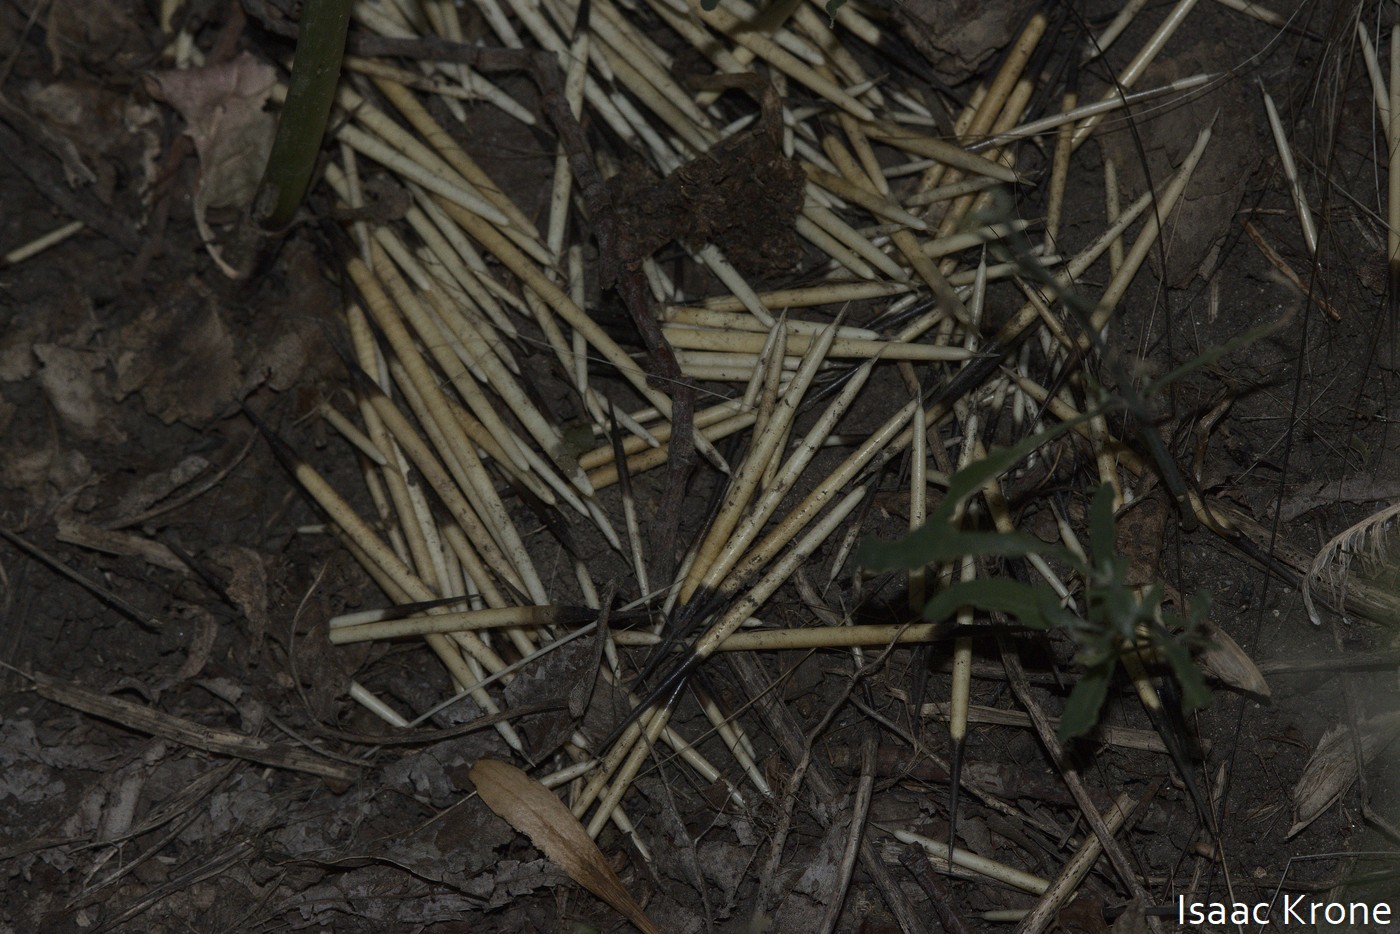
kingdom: Animalia
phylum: Chordata
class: Mammalia
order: Rodentia
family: Erethizontidae
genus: Erethizon
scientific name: Erethizon dorsatus
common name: North american porcupine
